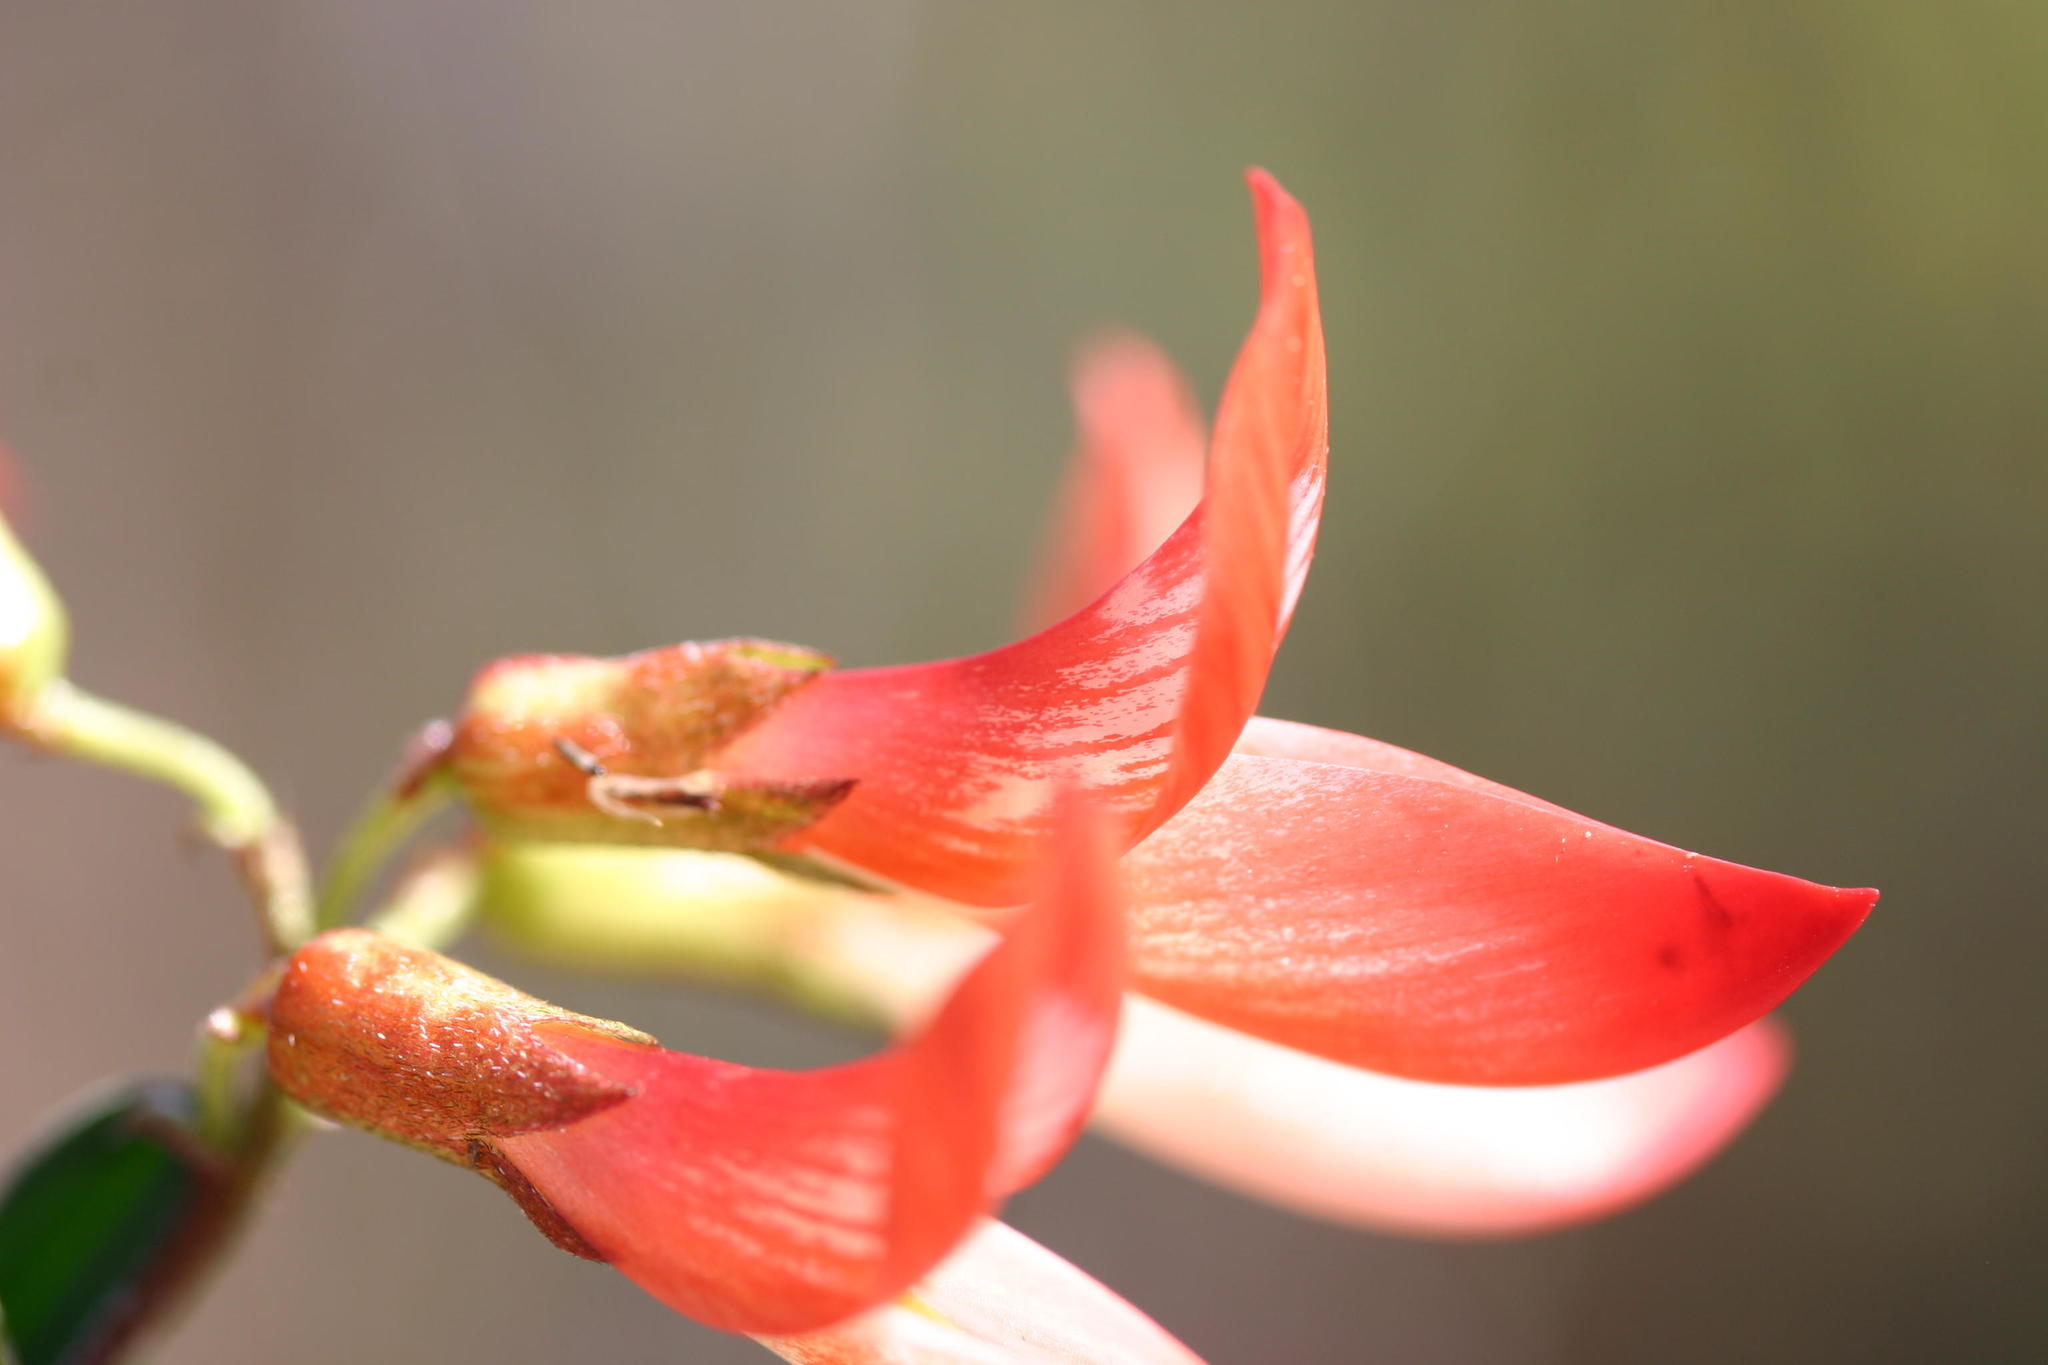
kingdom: Plantae
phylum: Tracheophyta
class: Magnoliopsida
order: Fabales
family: Fabaceae
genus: Lessertia
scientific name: Lessertia frutescens
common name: Balloon-pea
